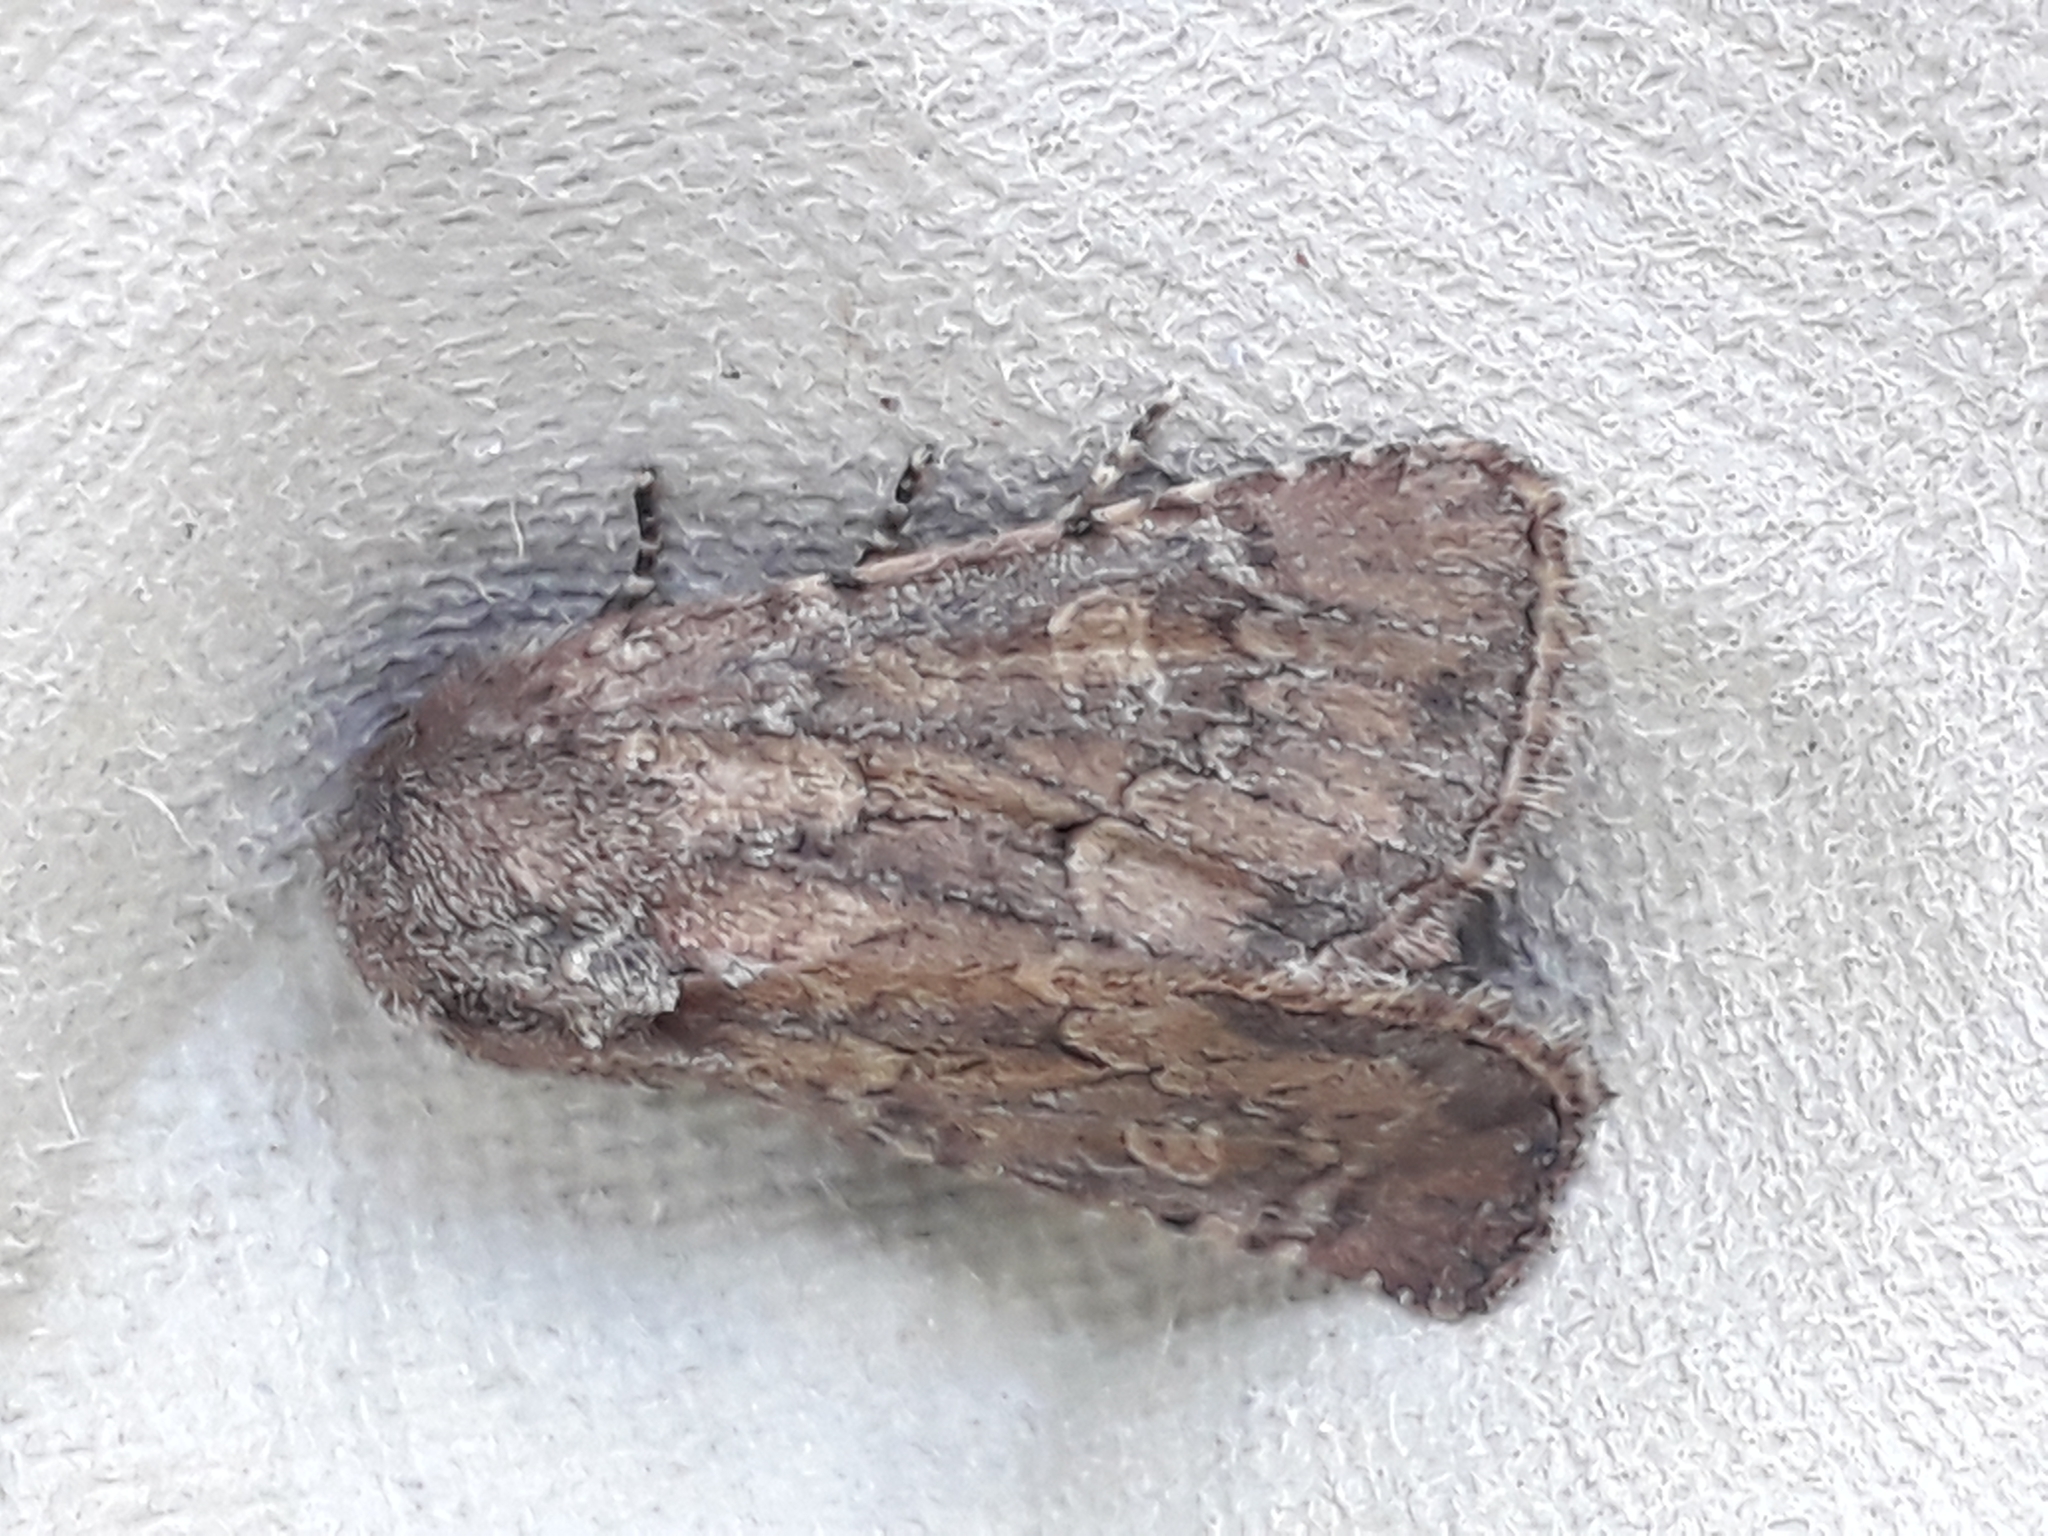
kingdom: Animalia
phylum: Arthropoda
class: Insecta
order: Lepidoptera
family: Noctuidae
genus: Luperina
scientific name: Luperina testacea
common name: Flounced rustic
